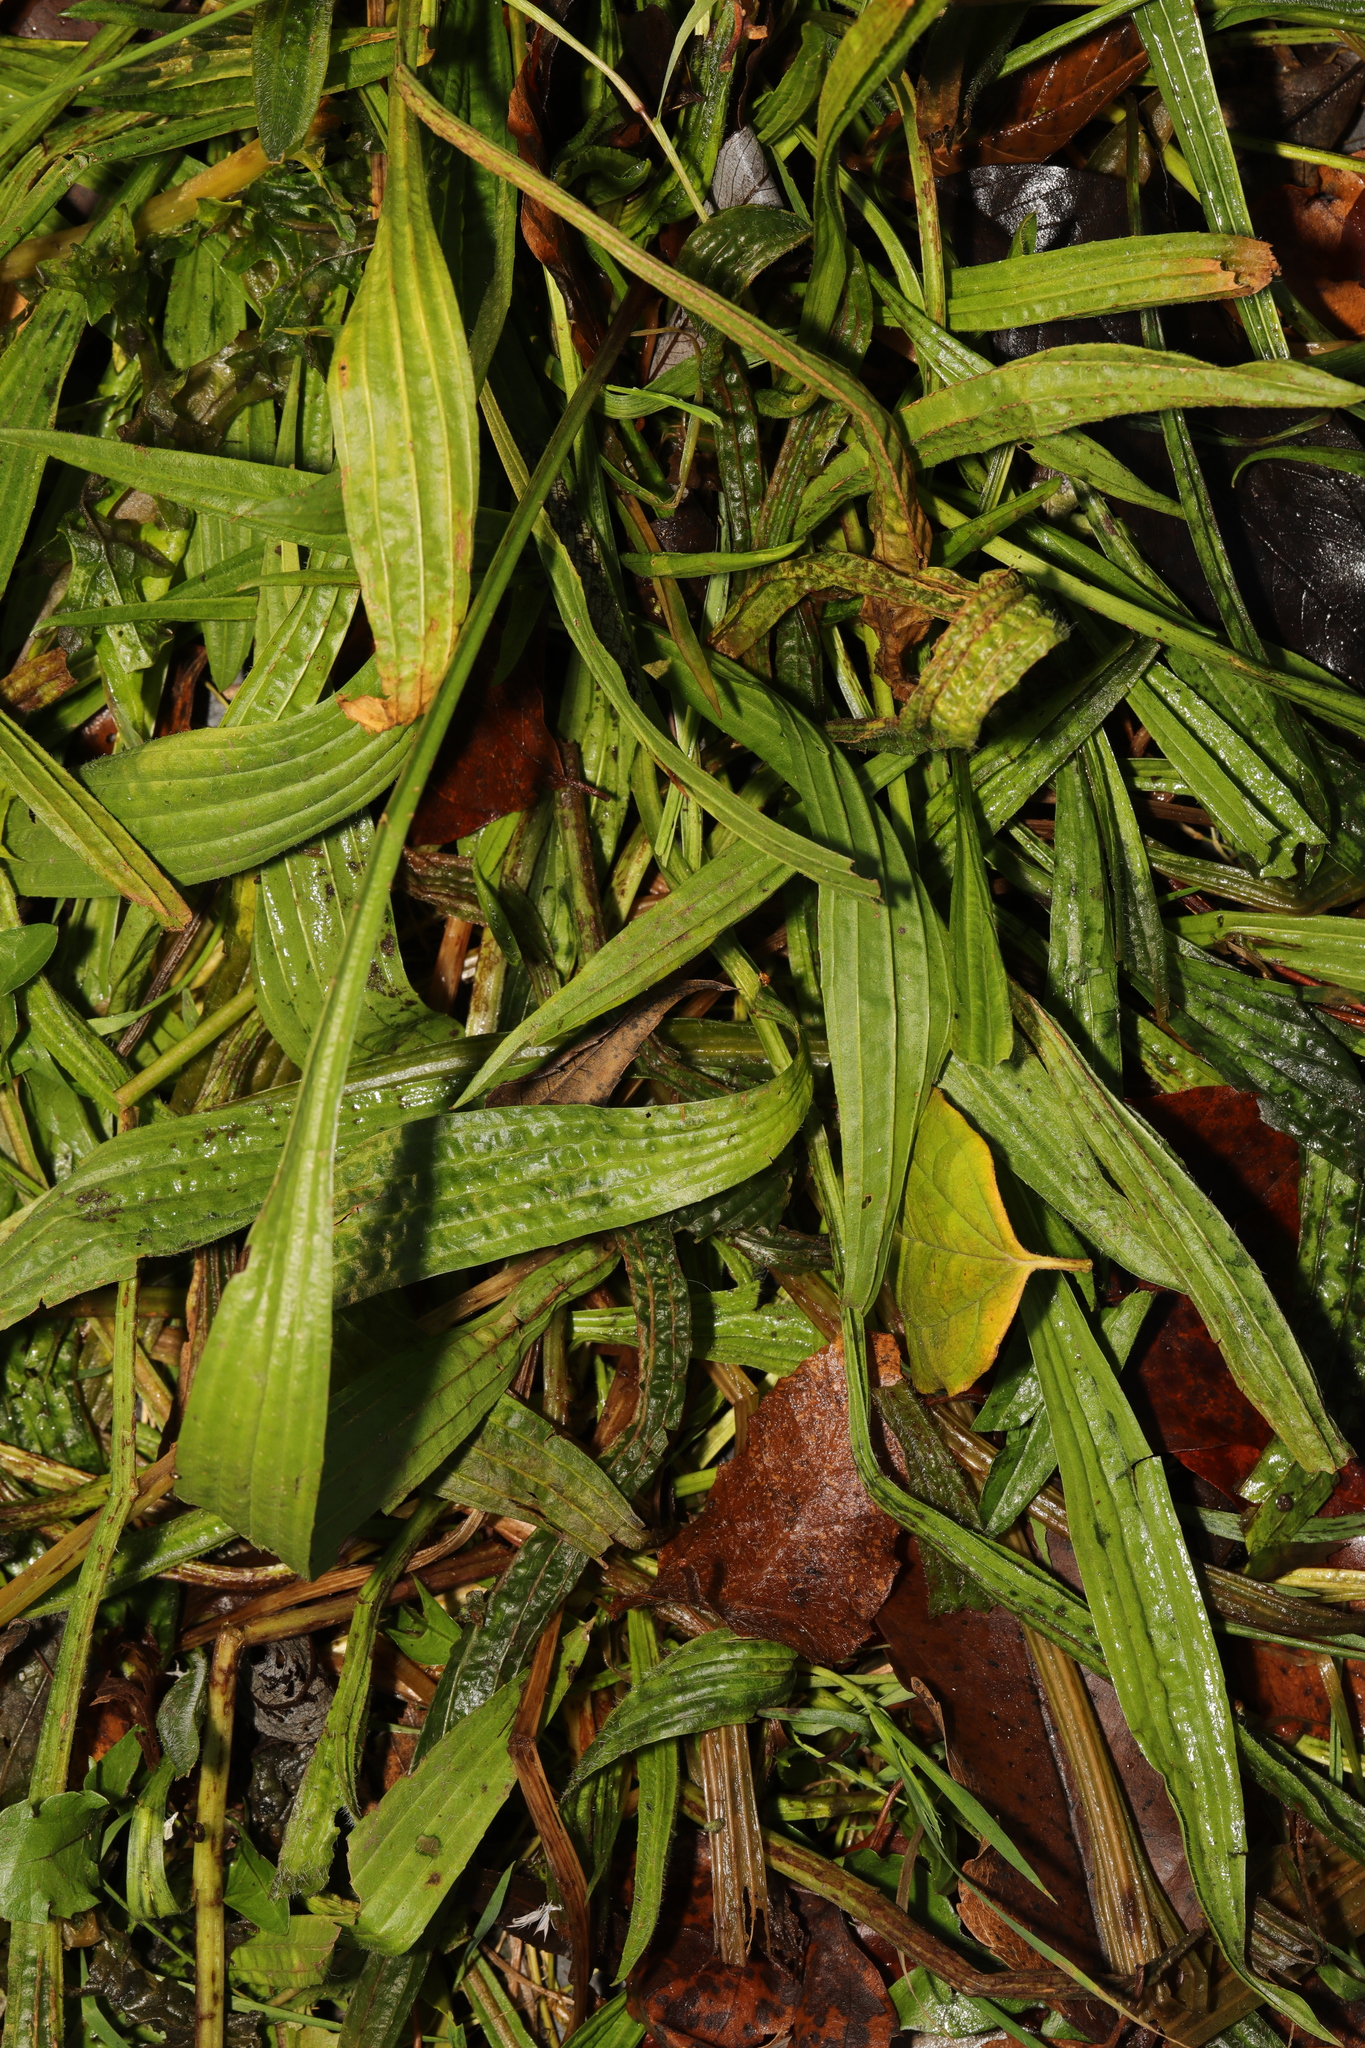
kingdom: Plantae
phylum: Tracheophyta
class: Magnoliopsida
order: Lamiales
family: Plantaginaceae
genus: Plantago
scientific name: Plantago lanceolata
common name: Ribwort plantain
